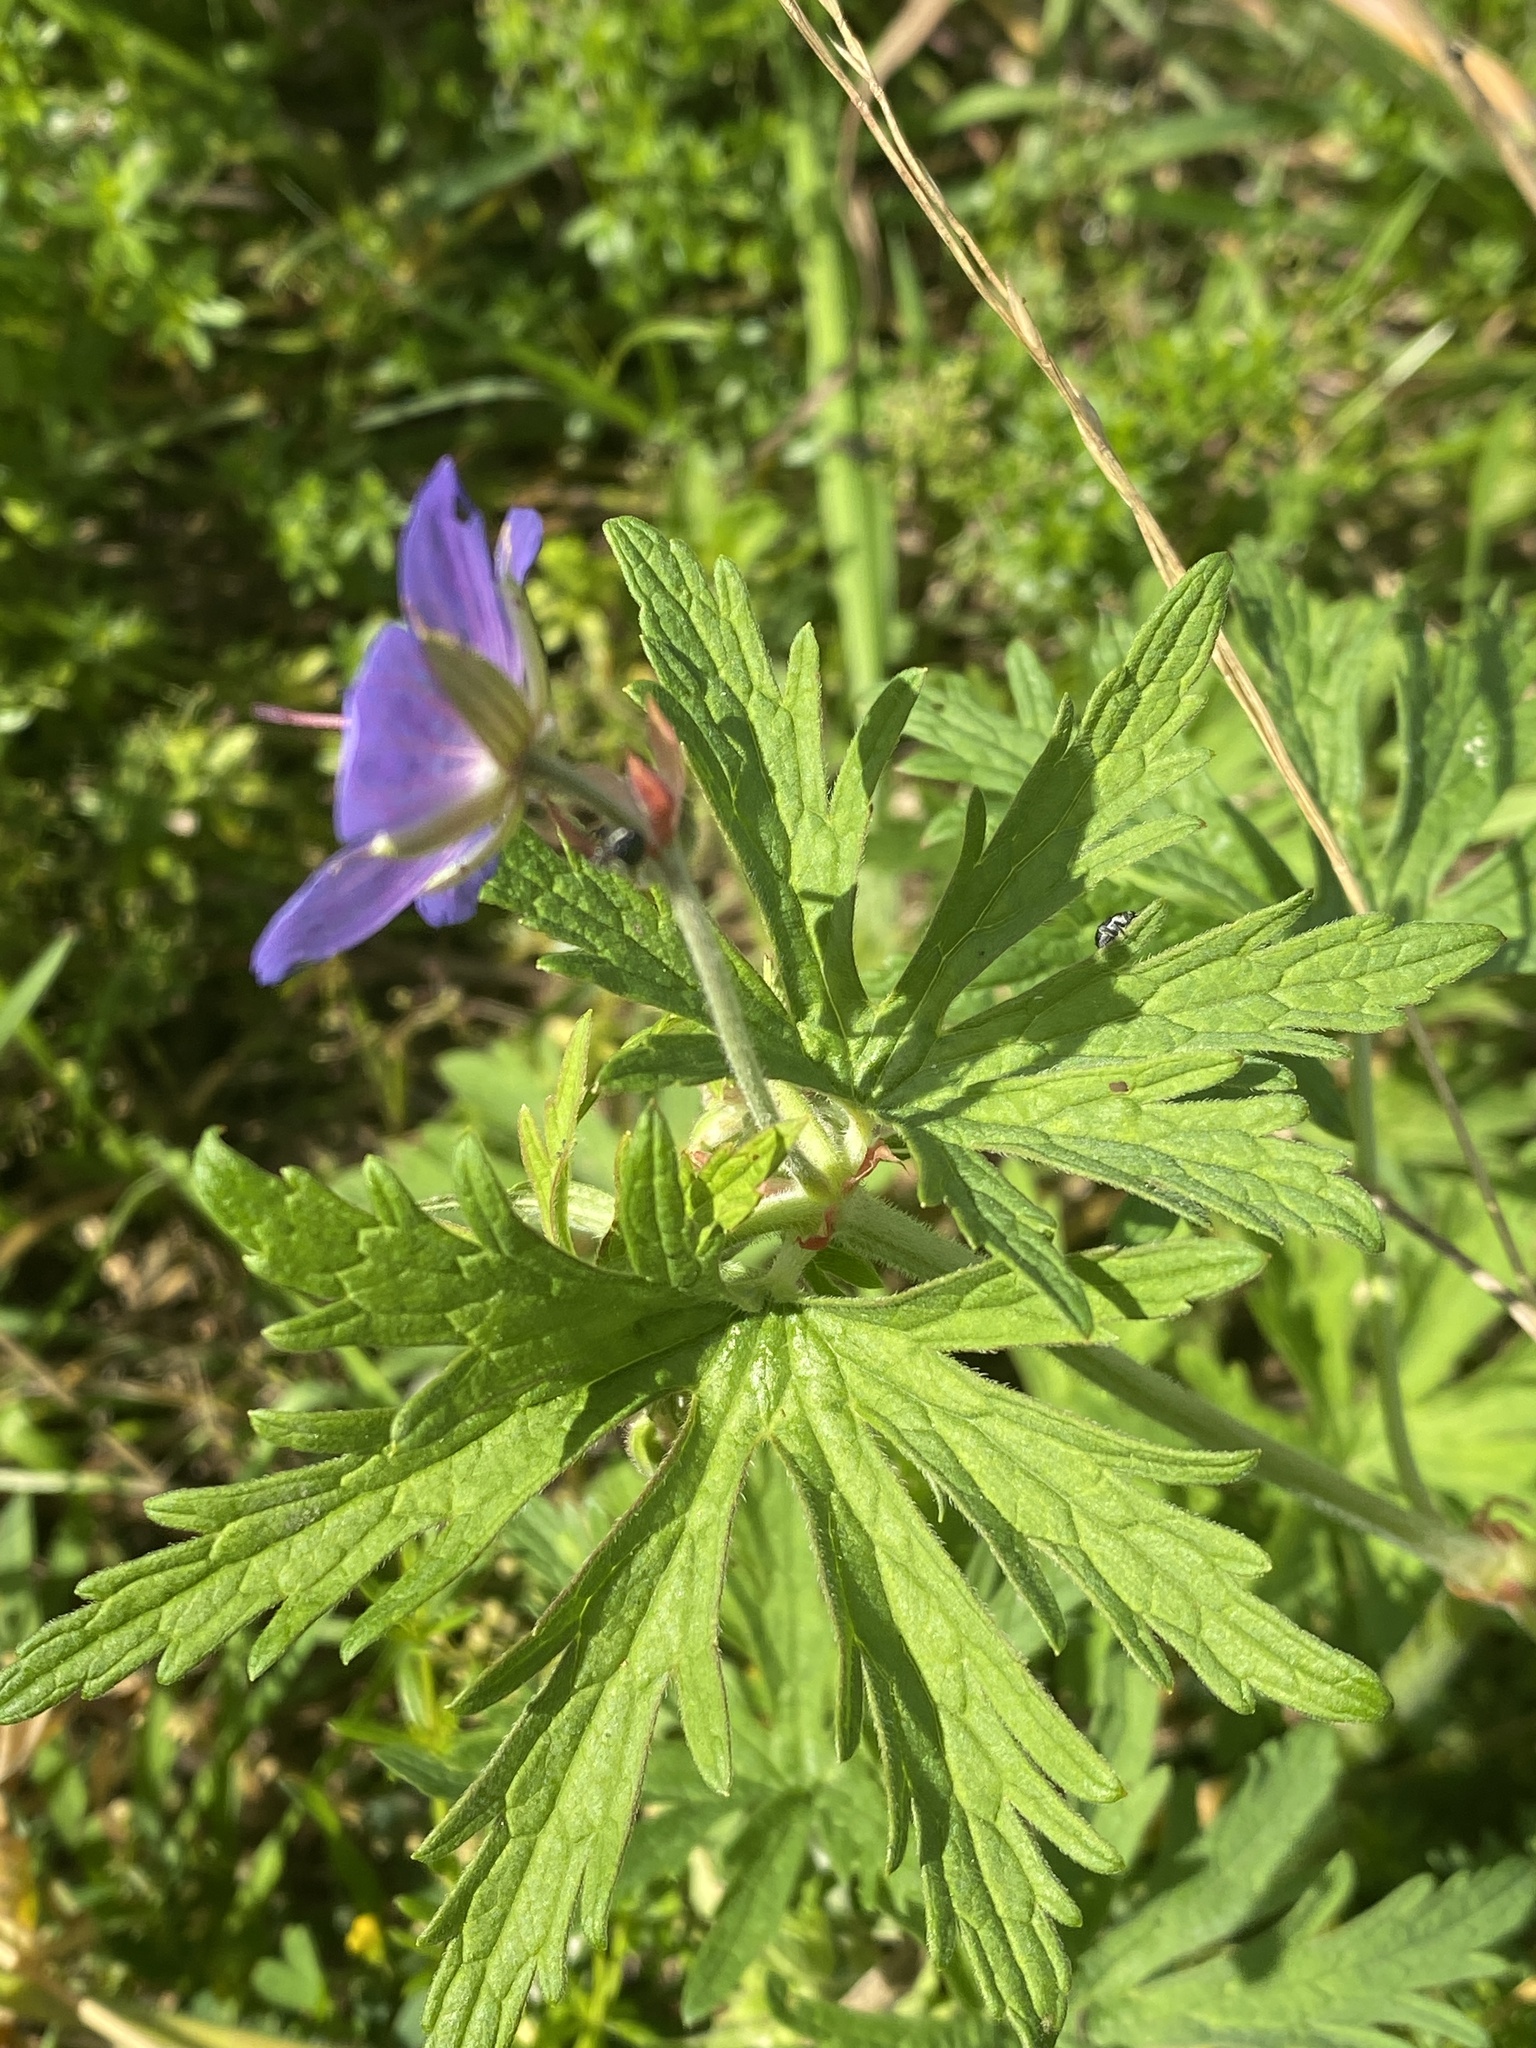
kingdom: Plantae
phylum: Tracheophyta
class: Magnoliopsida
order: Geraniales
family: Geraniaceae
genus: Geranium
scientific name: Geranium pratense
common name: Meadow crane's-bill
